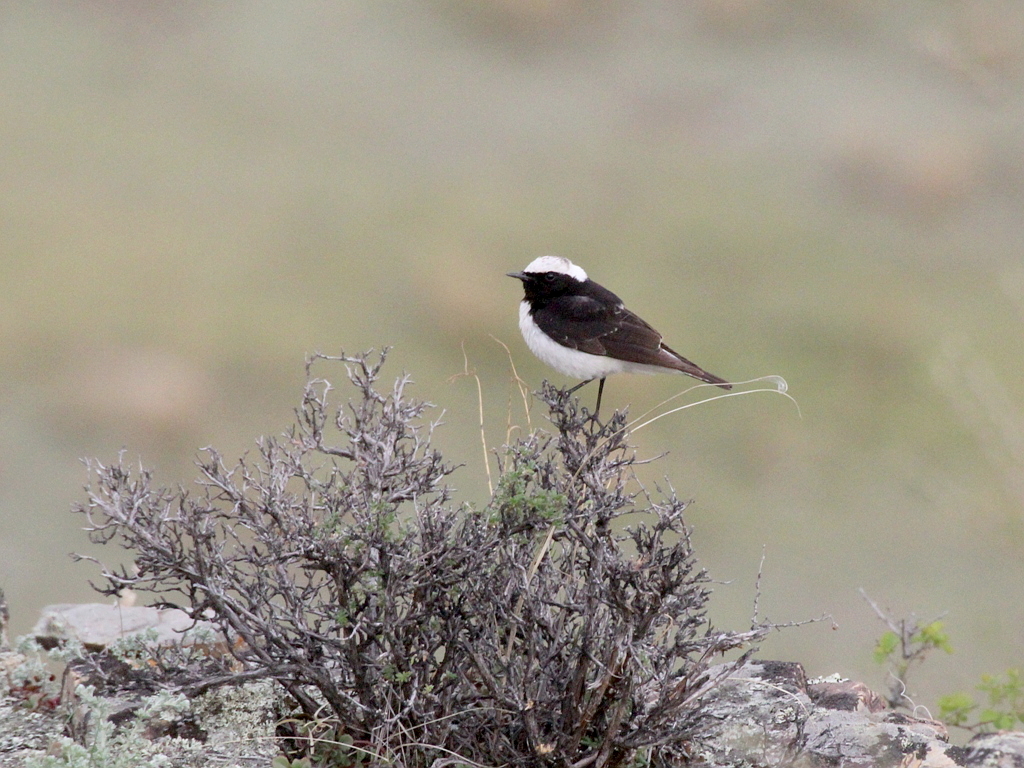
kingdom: Animalia
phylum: Chordata
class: Aves
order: Passeriformes
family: Muscicapidae
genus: Oenanthe
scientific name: Oenanthe pleschanka
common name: Pied wheatear
